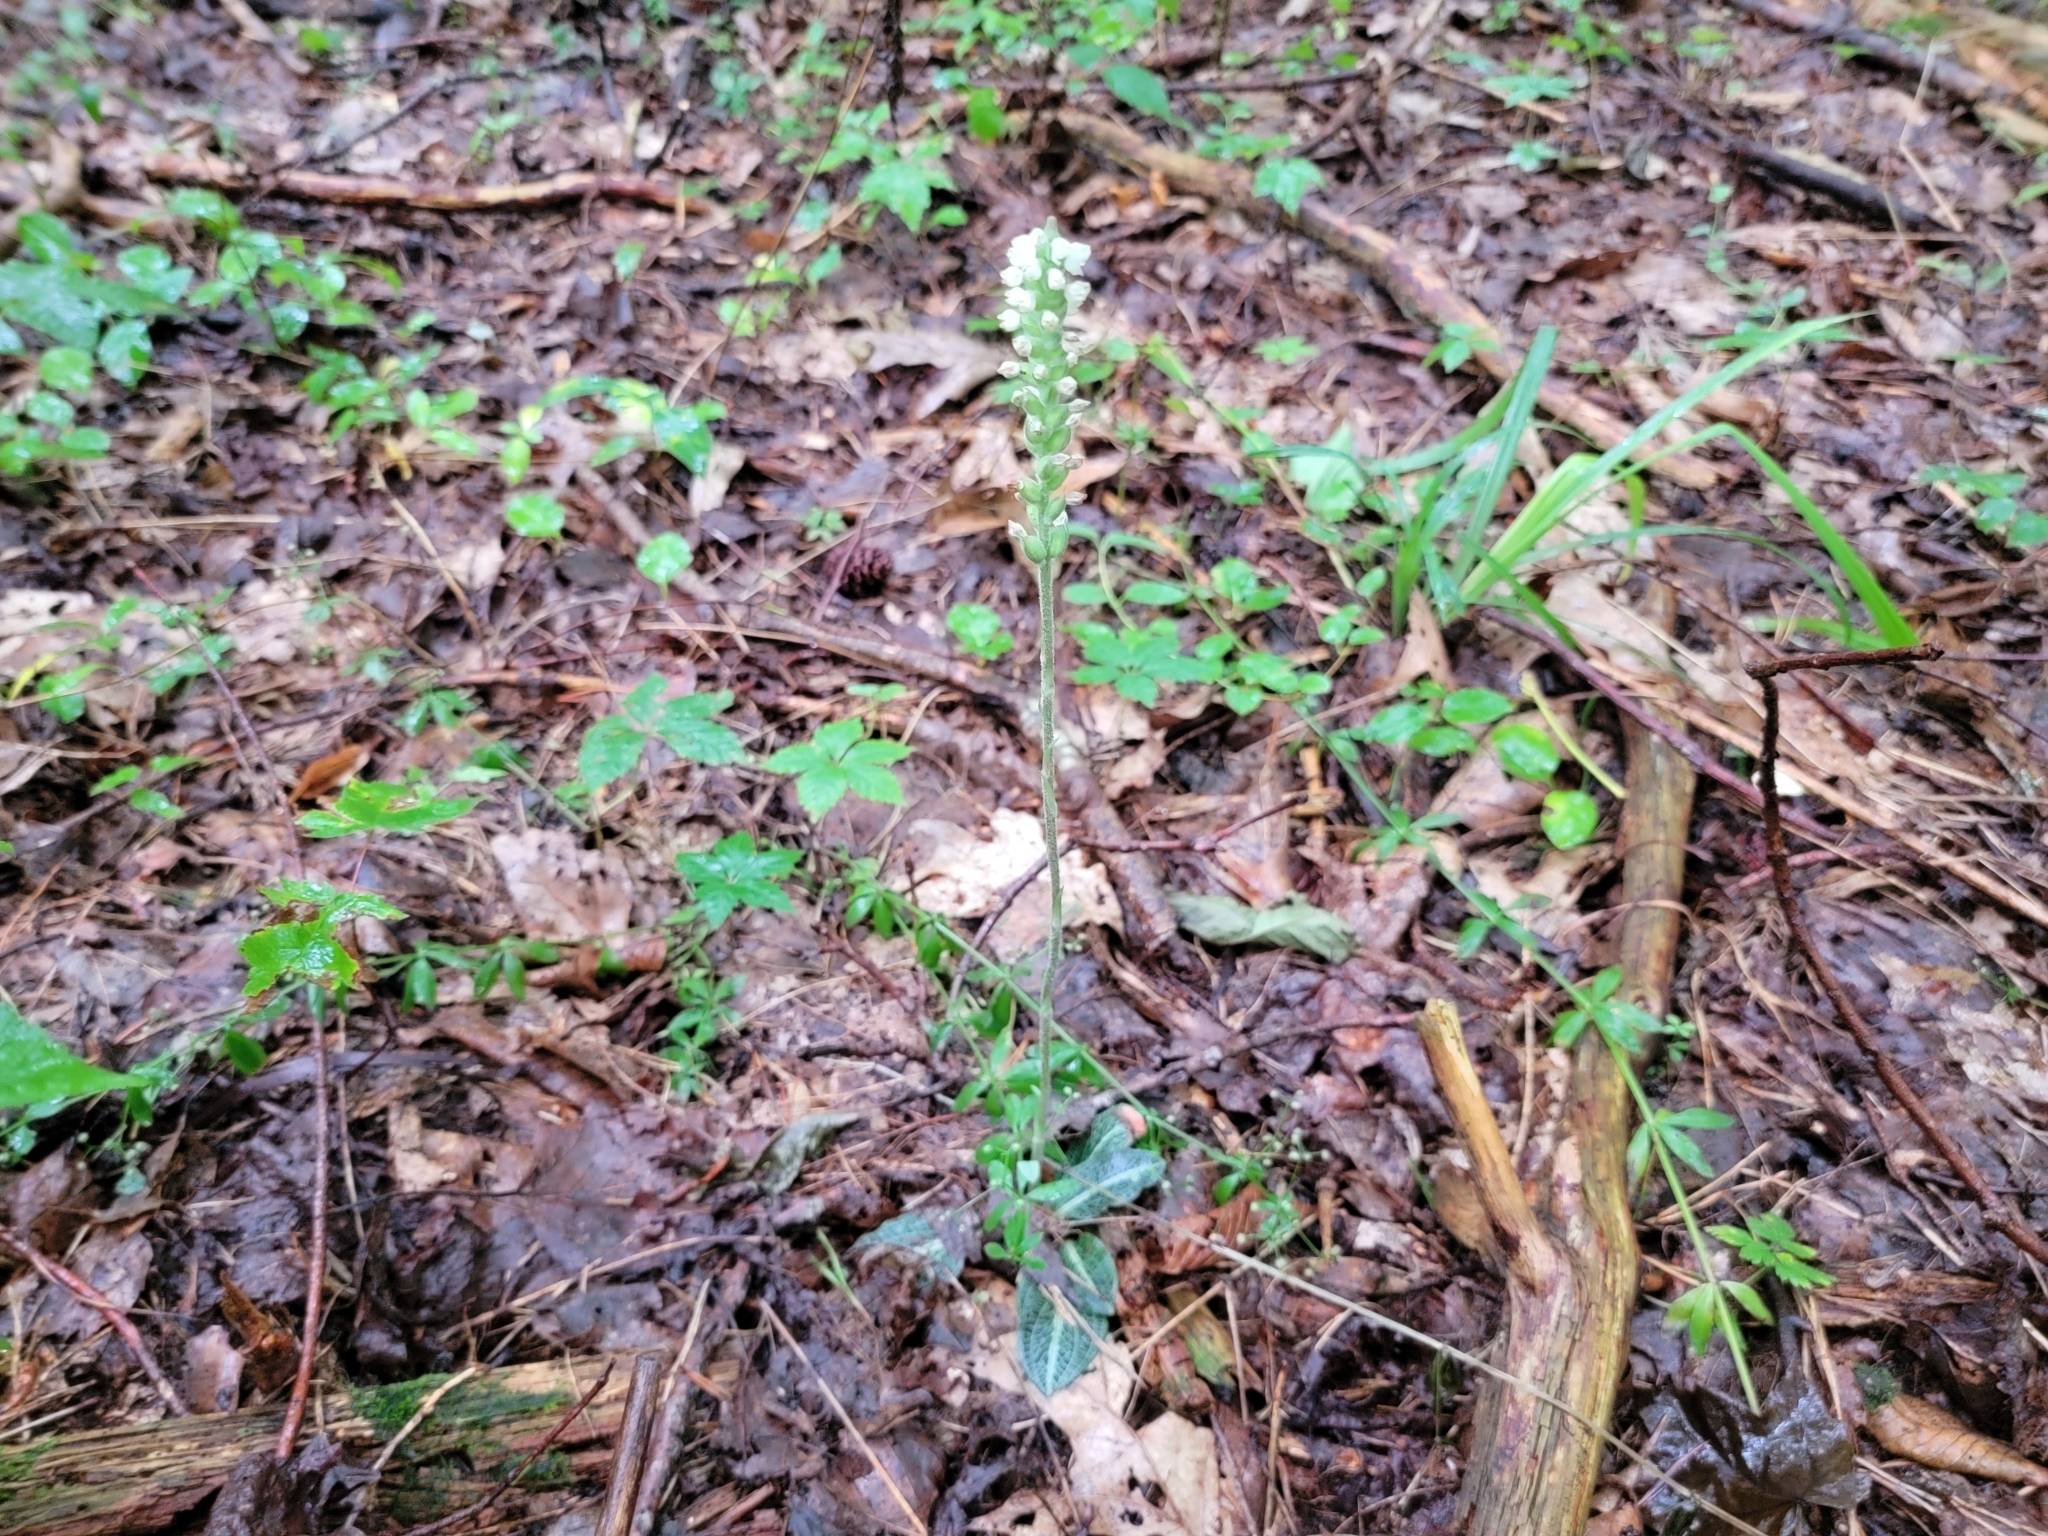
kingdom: Plantae
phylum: Tracheophyta
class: Liliopsida
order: Asparagales
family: Orchidaceae
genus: Goodyera
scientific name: Goodyera pubescens
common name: Downy rattlesnake-plantain
